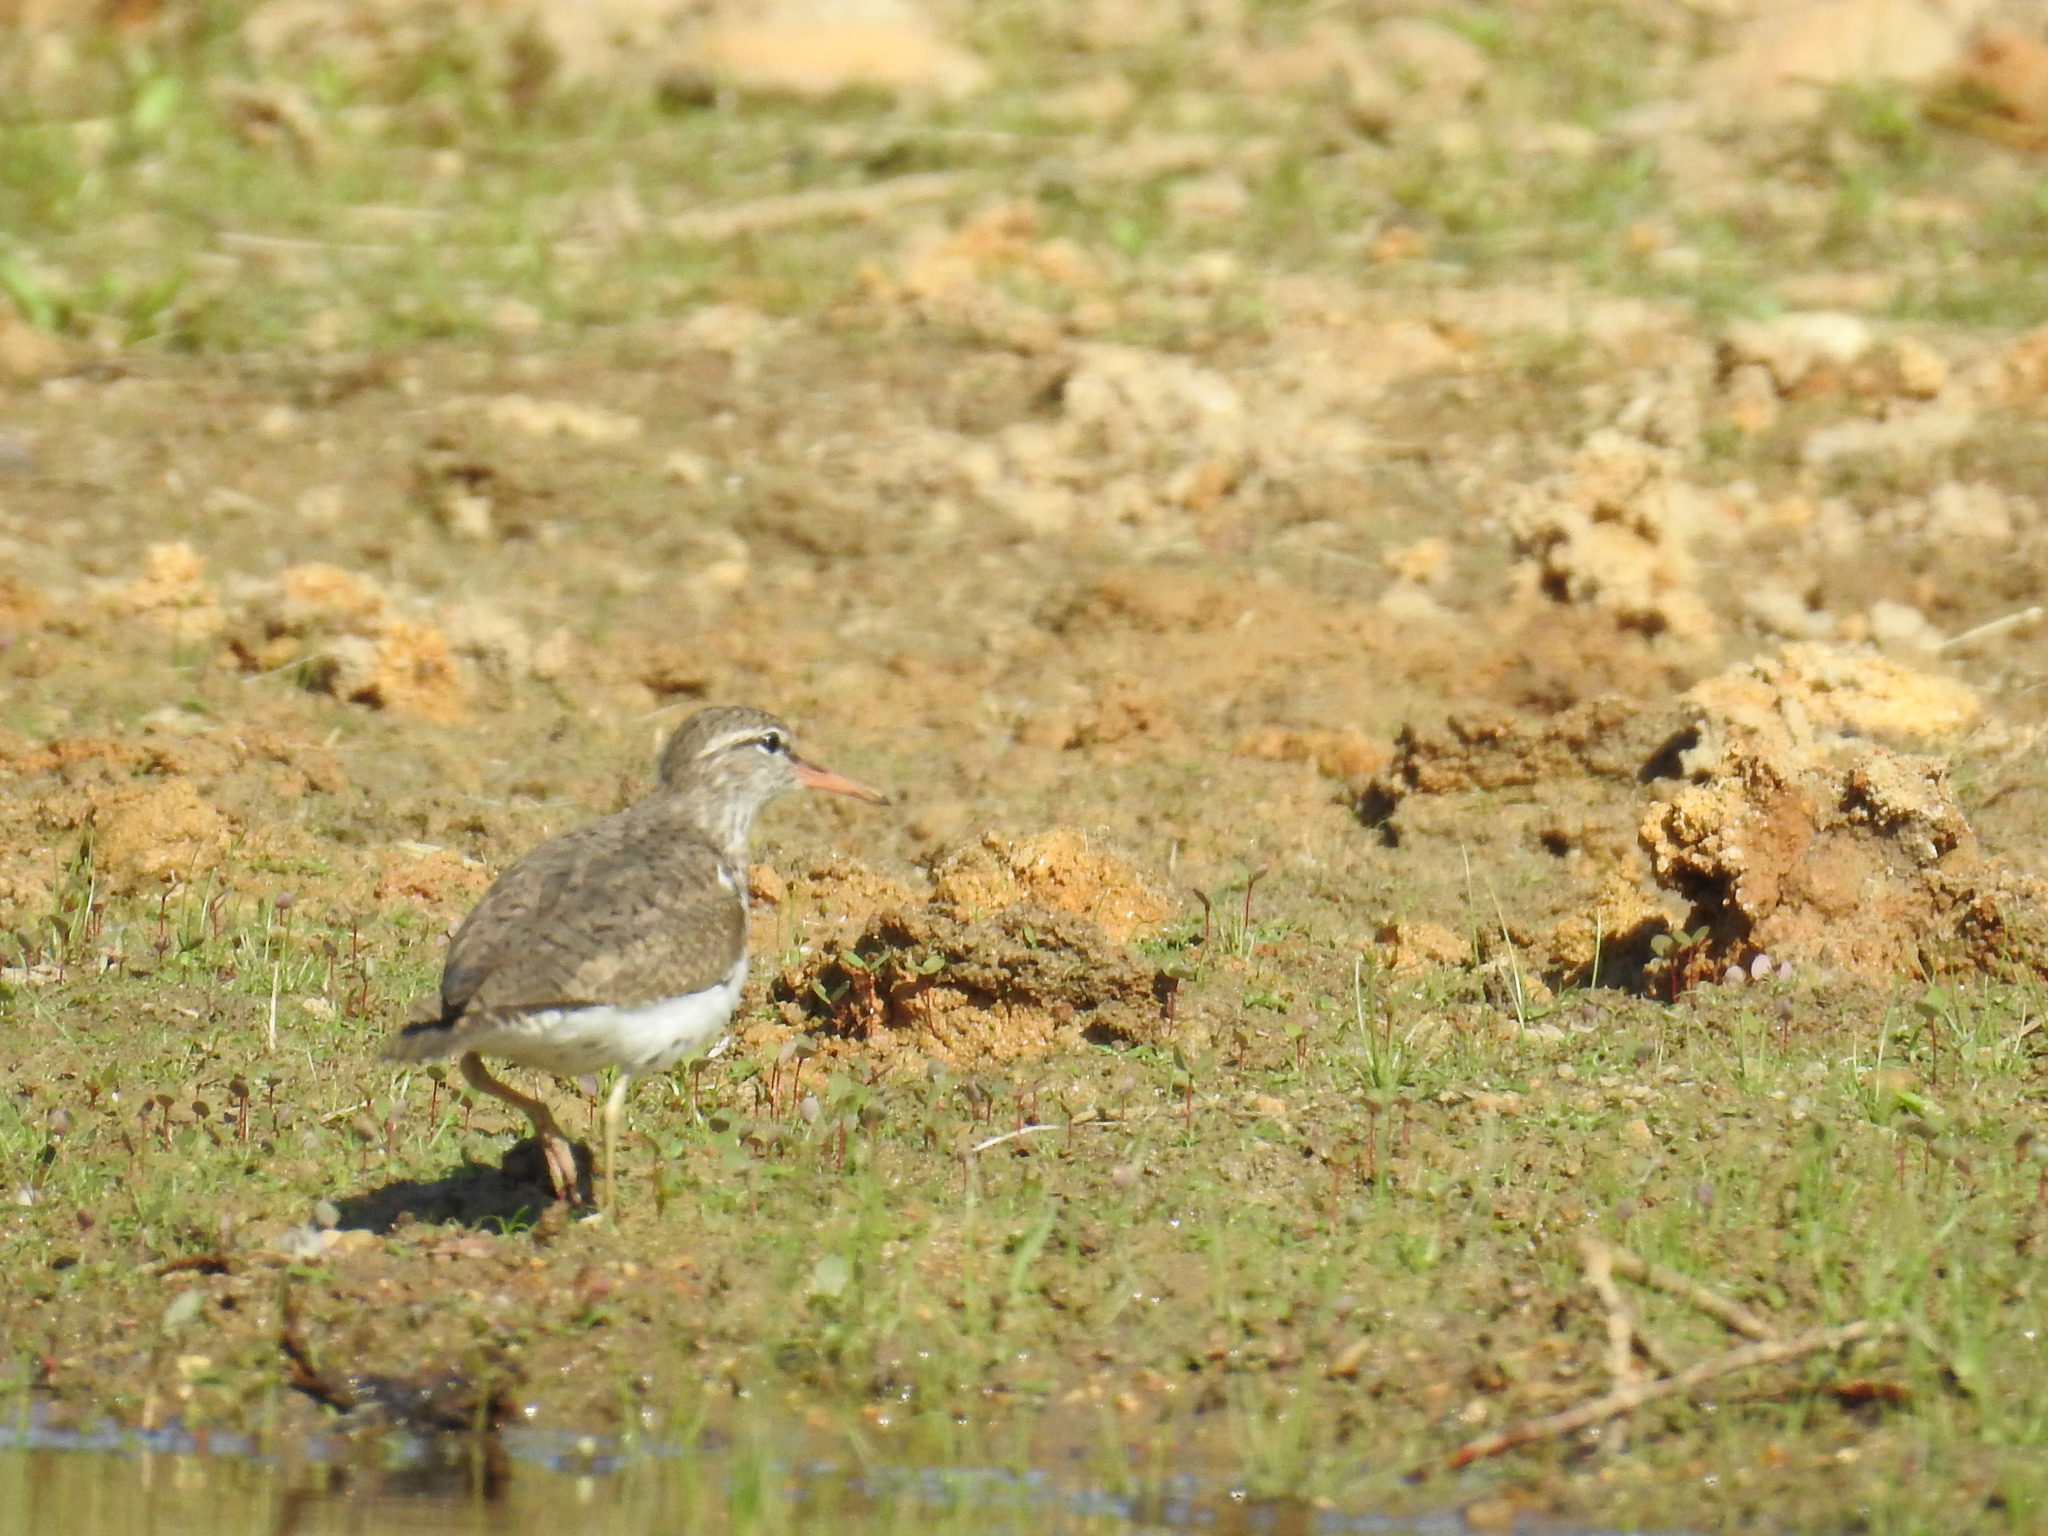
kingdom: Animalia
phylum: Chordata
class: Aves
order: Charadriiformes
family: Scolopacidae
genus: Actitis
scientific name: Actitis macularius
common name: Spotted sandpiper
